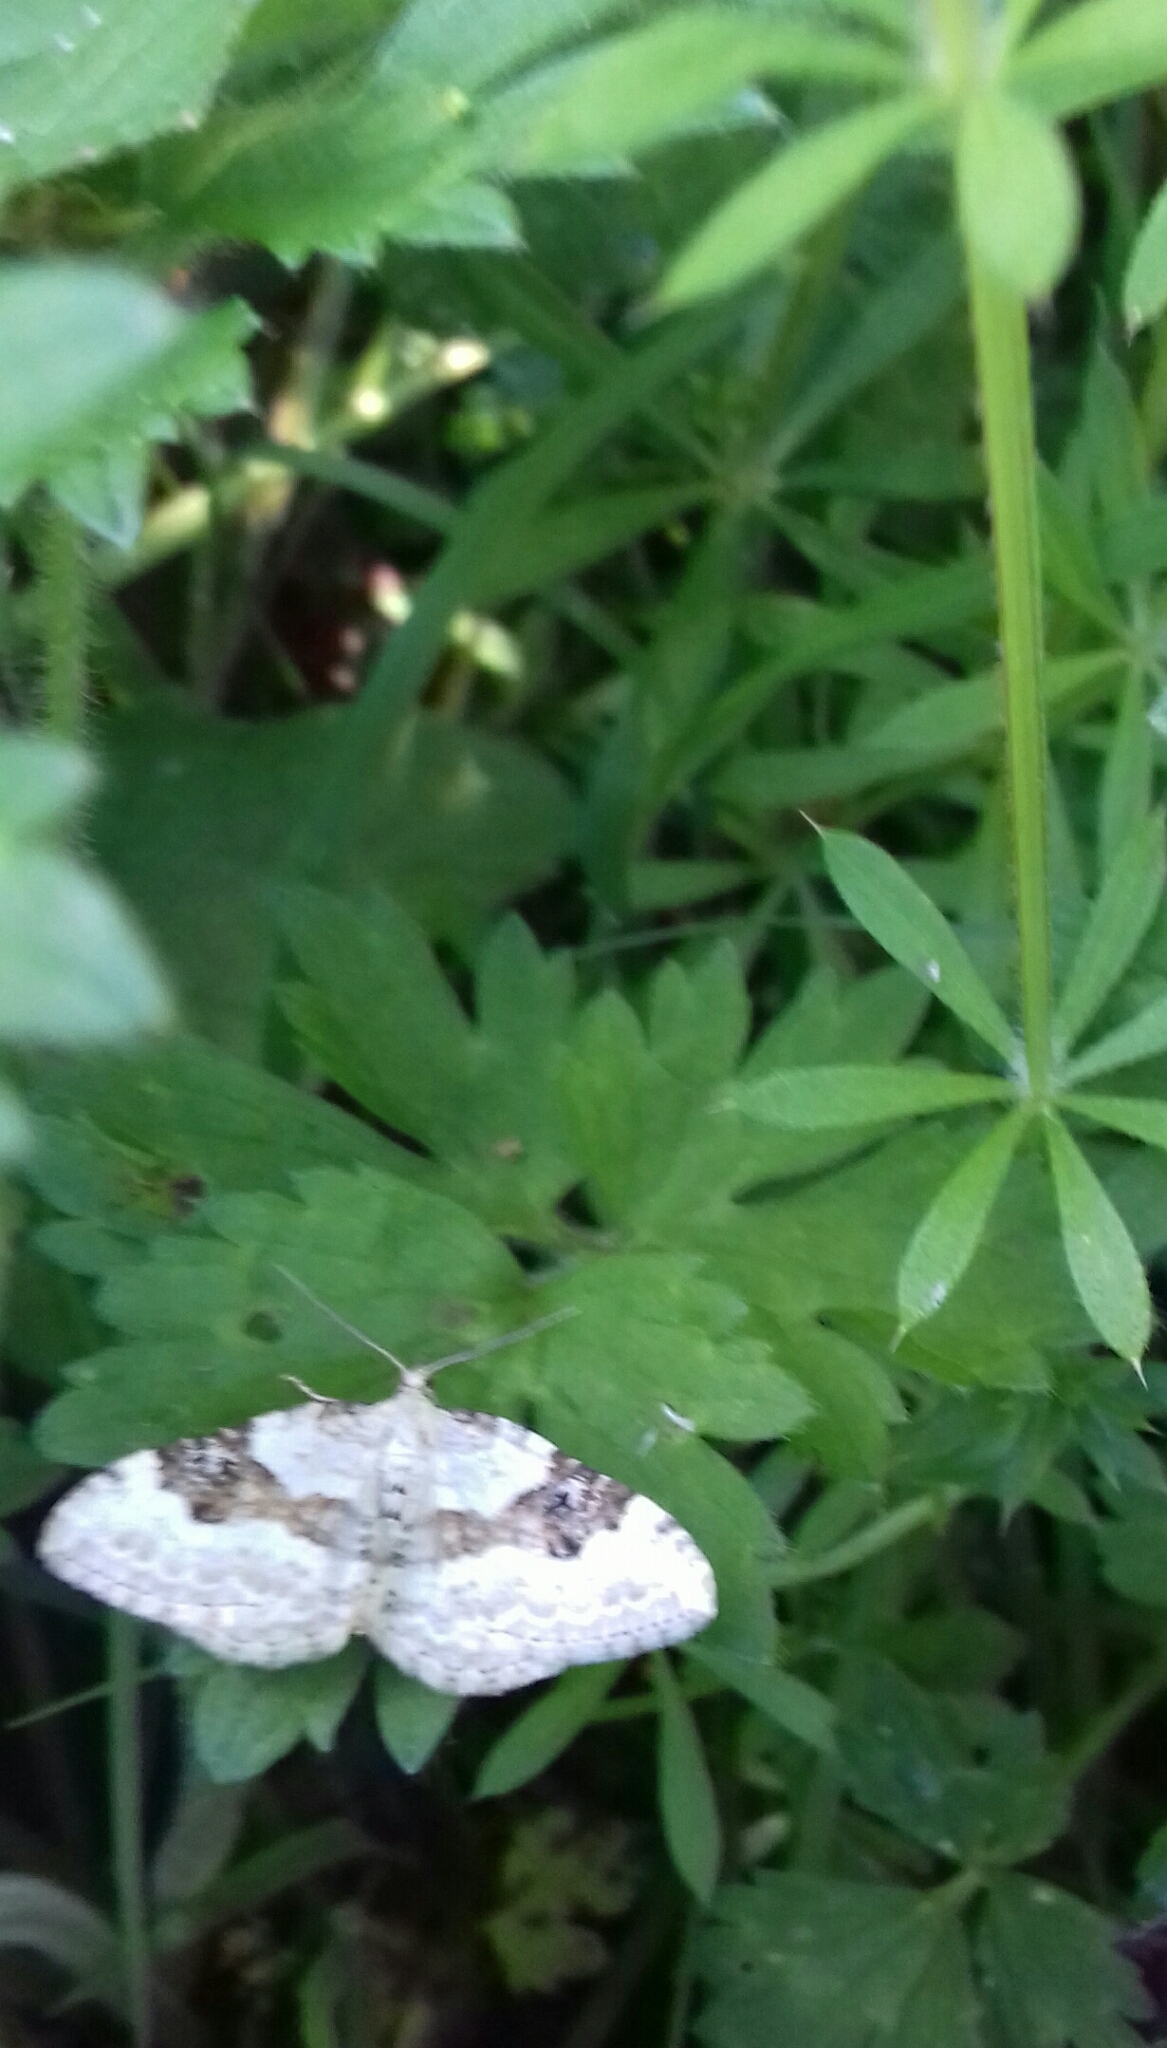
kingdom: Animalia
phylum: Arthropoda
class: Insecta
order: Lepidoptera
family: Geometridae
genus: Xanthorhoe
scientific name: Xanthorhoe montanata
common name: Silver-ground carpet
